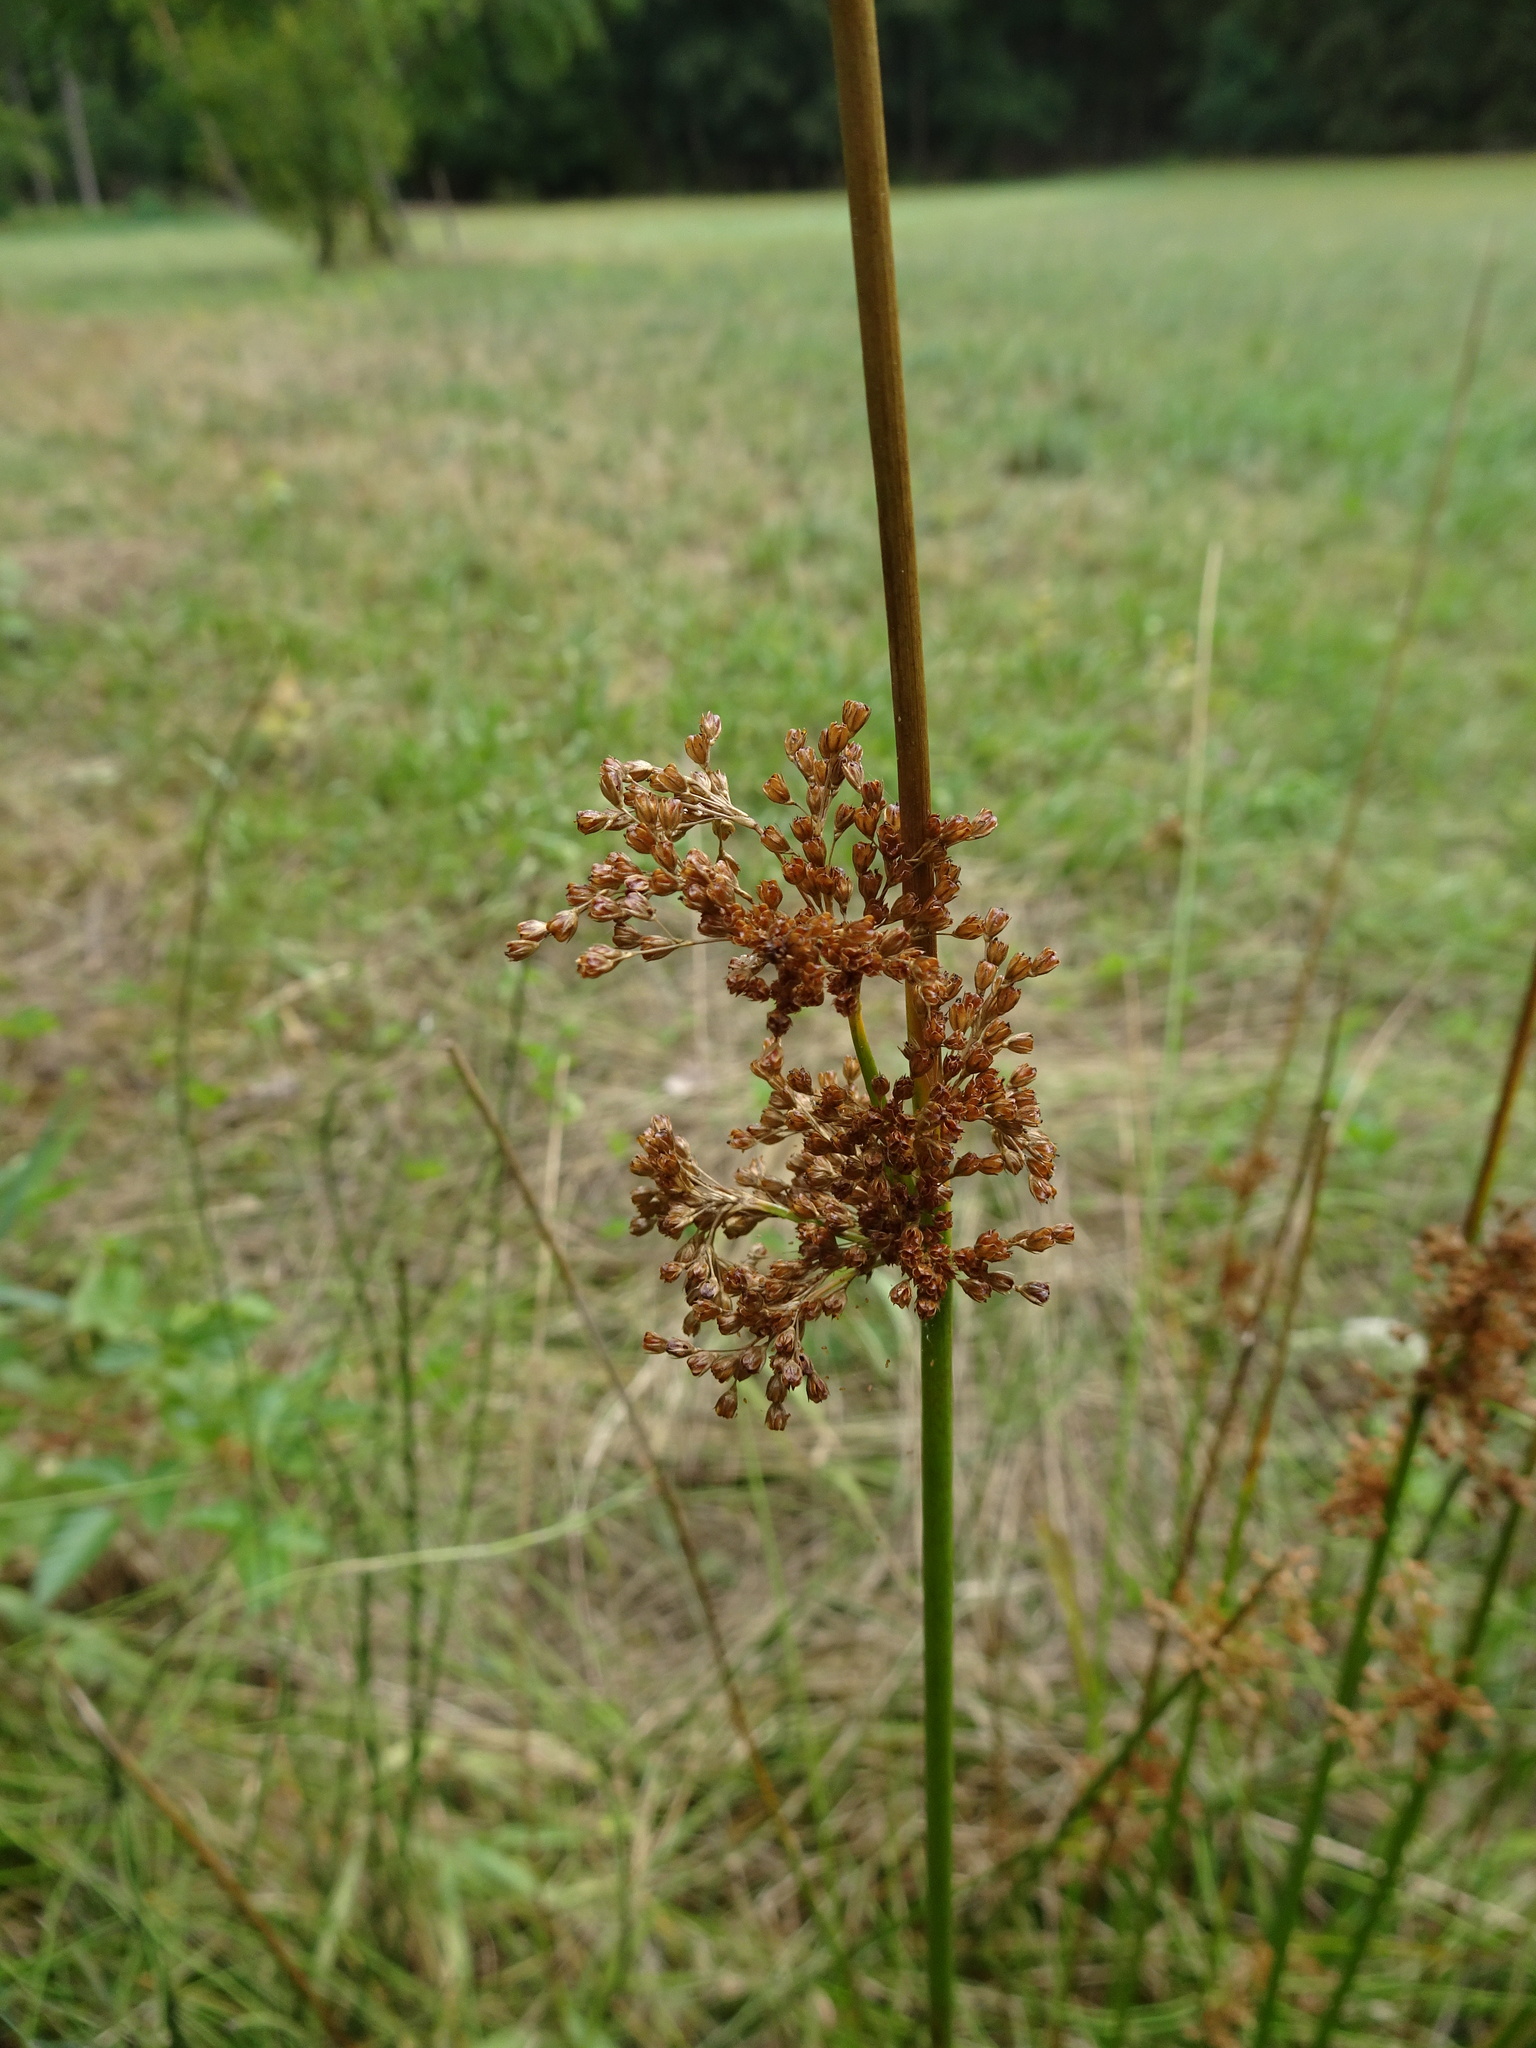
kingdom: Plantae
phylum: Tracheophyta
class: Liliopsida
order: Poales
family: Juncaceae
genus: Juncus
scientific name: Juncus effusus
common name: Soft rush
